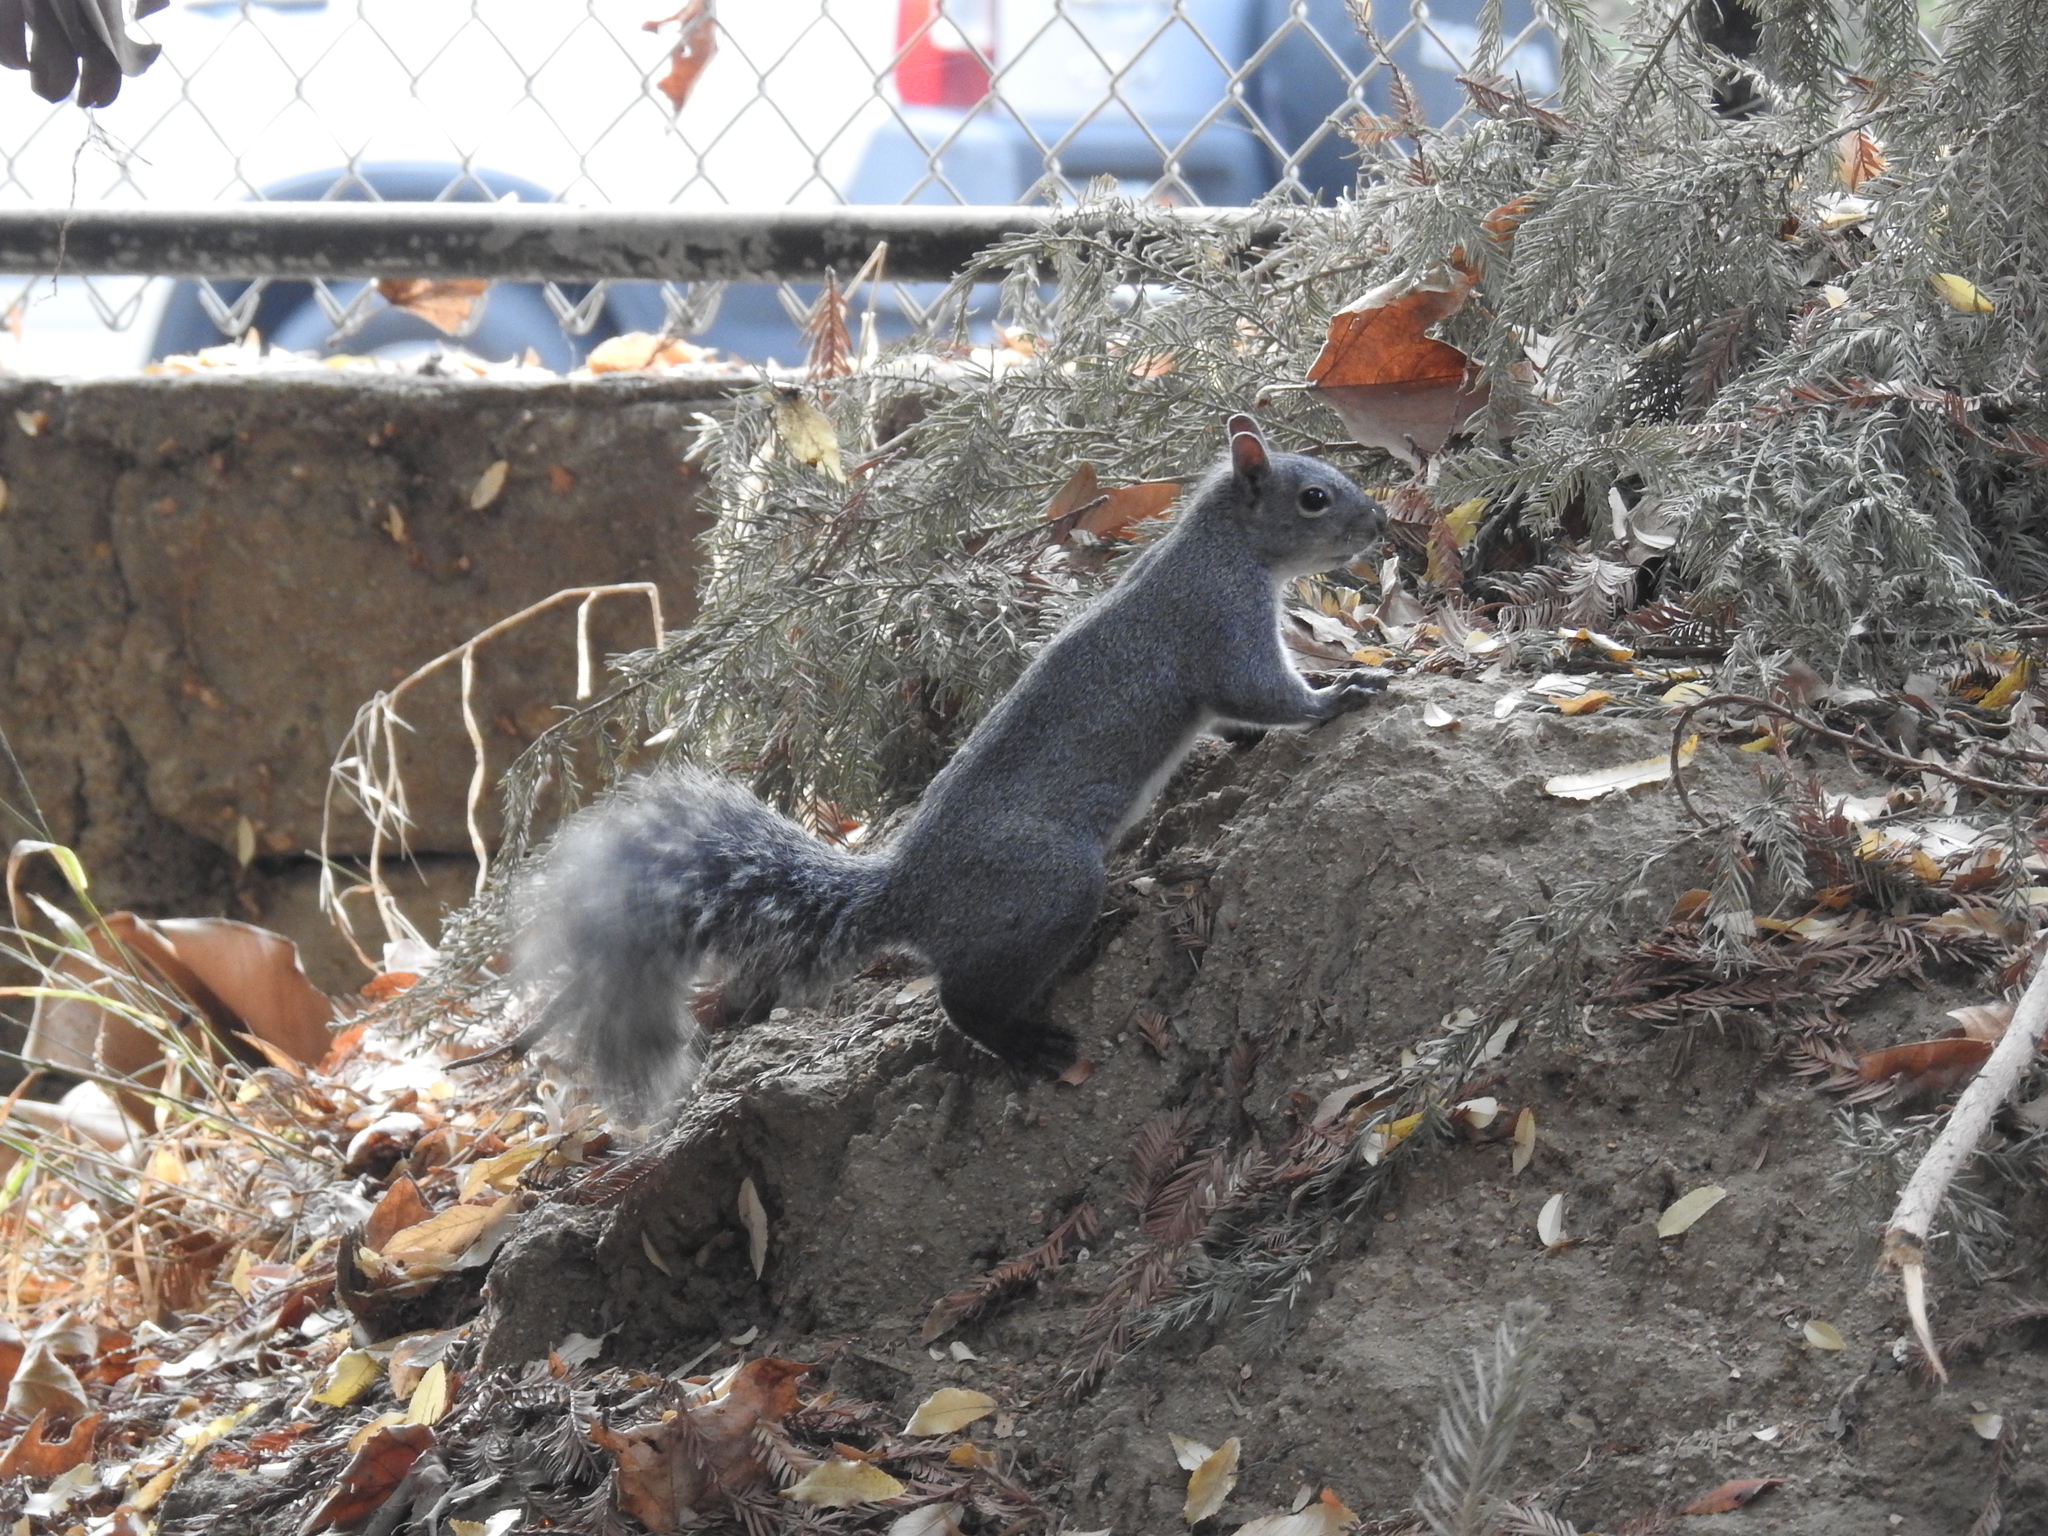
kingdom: Animalia
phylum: Chordata
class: Mammalia
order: Rodentia
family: Sciuridae
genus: Sciurus
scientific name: Sciurus griseus
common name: Western gray squirrel
